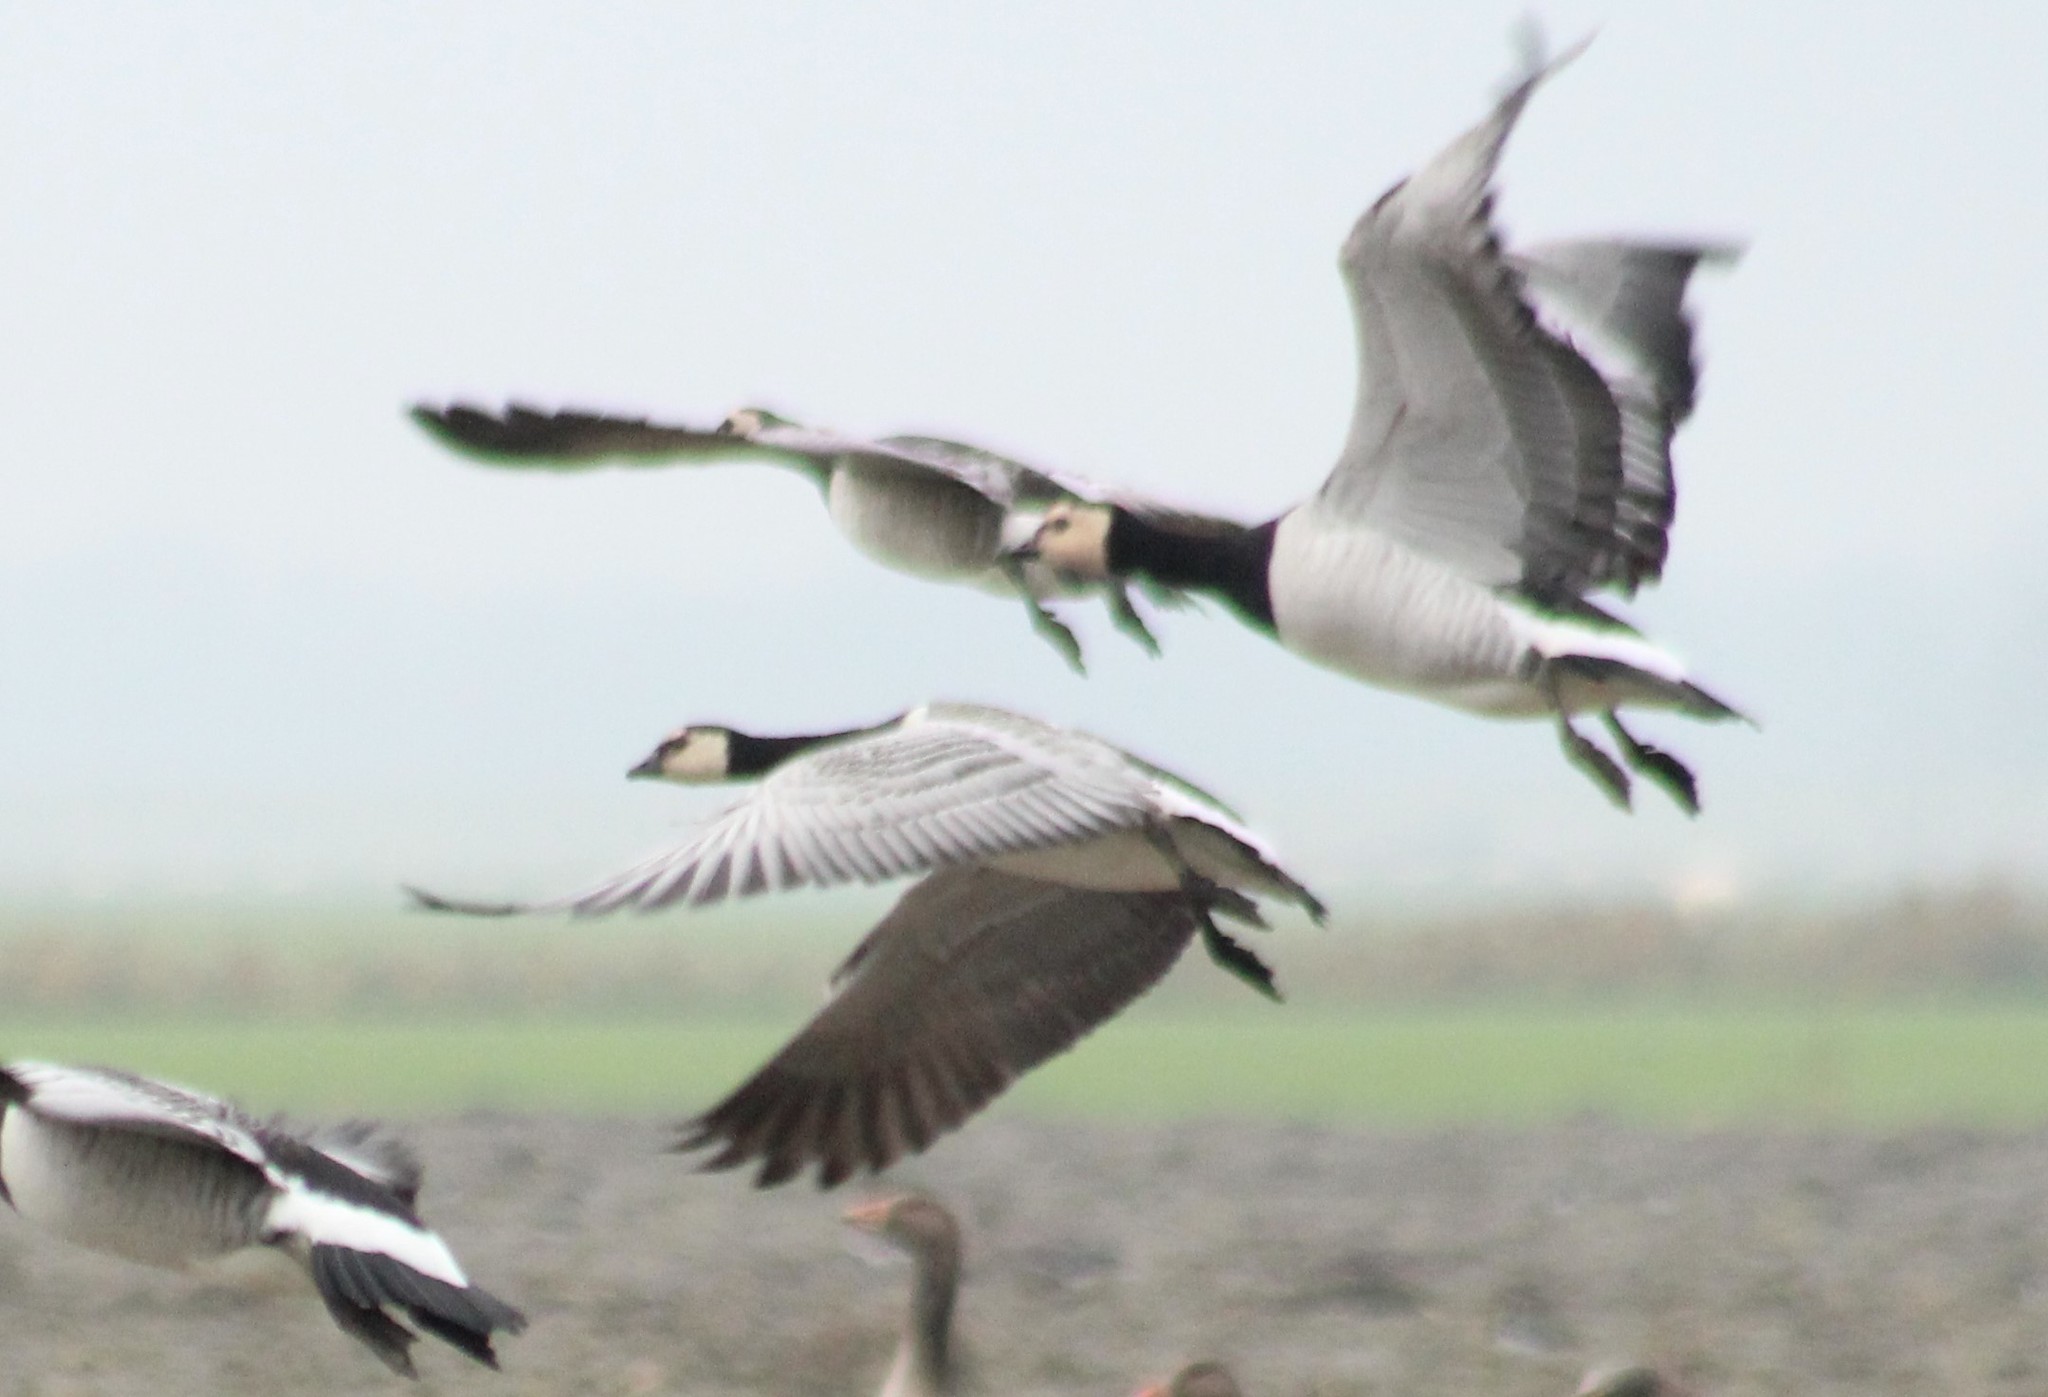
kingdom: Animalia
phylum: Chordata
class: Aves
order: Anseriformes
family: Anatidae
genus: Branta
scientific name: Branta leucopsis
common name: Barnacle goose
